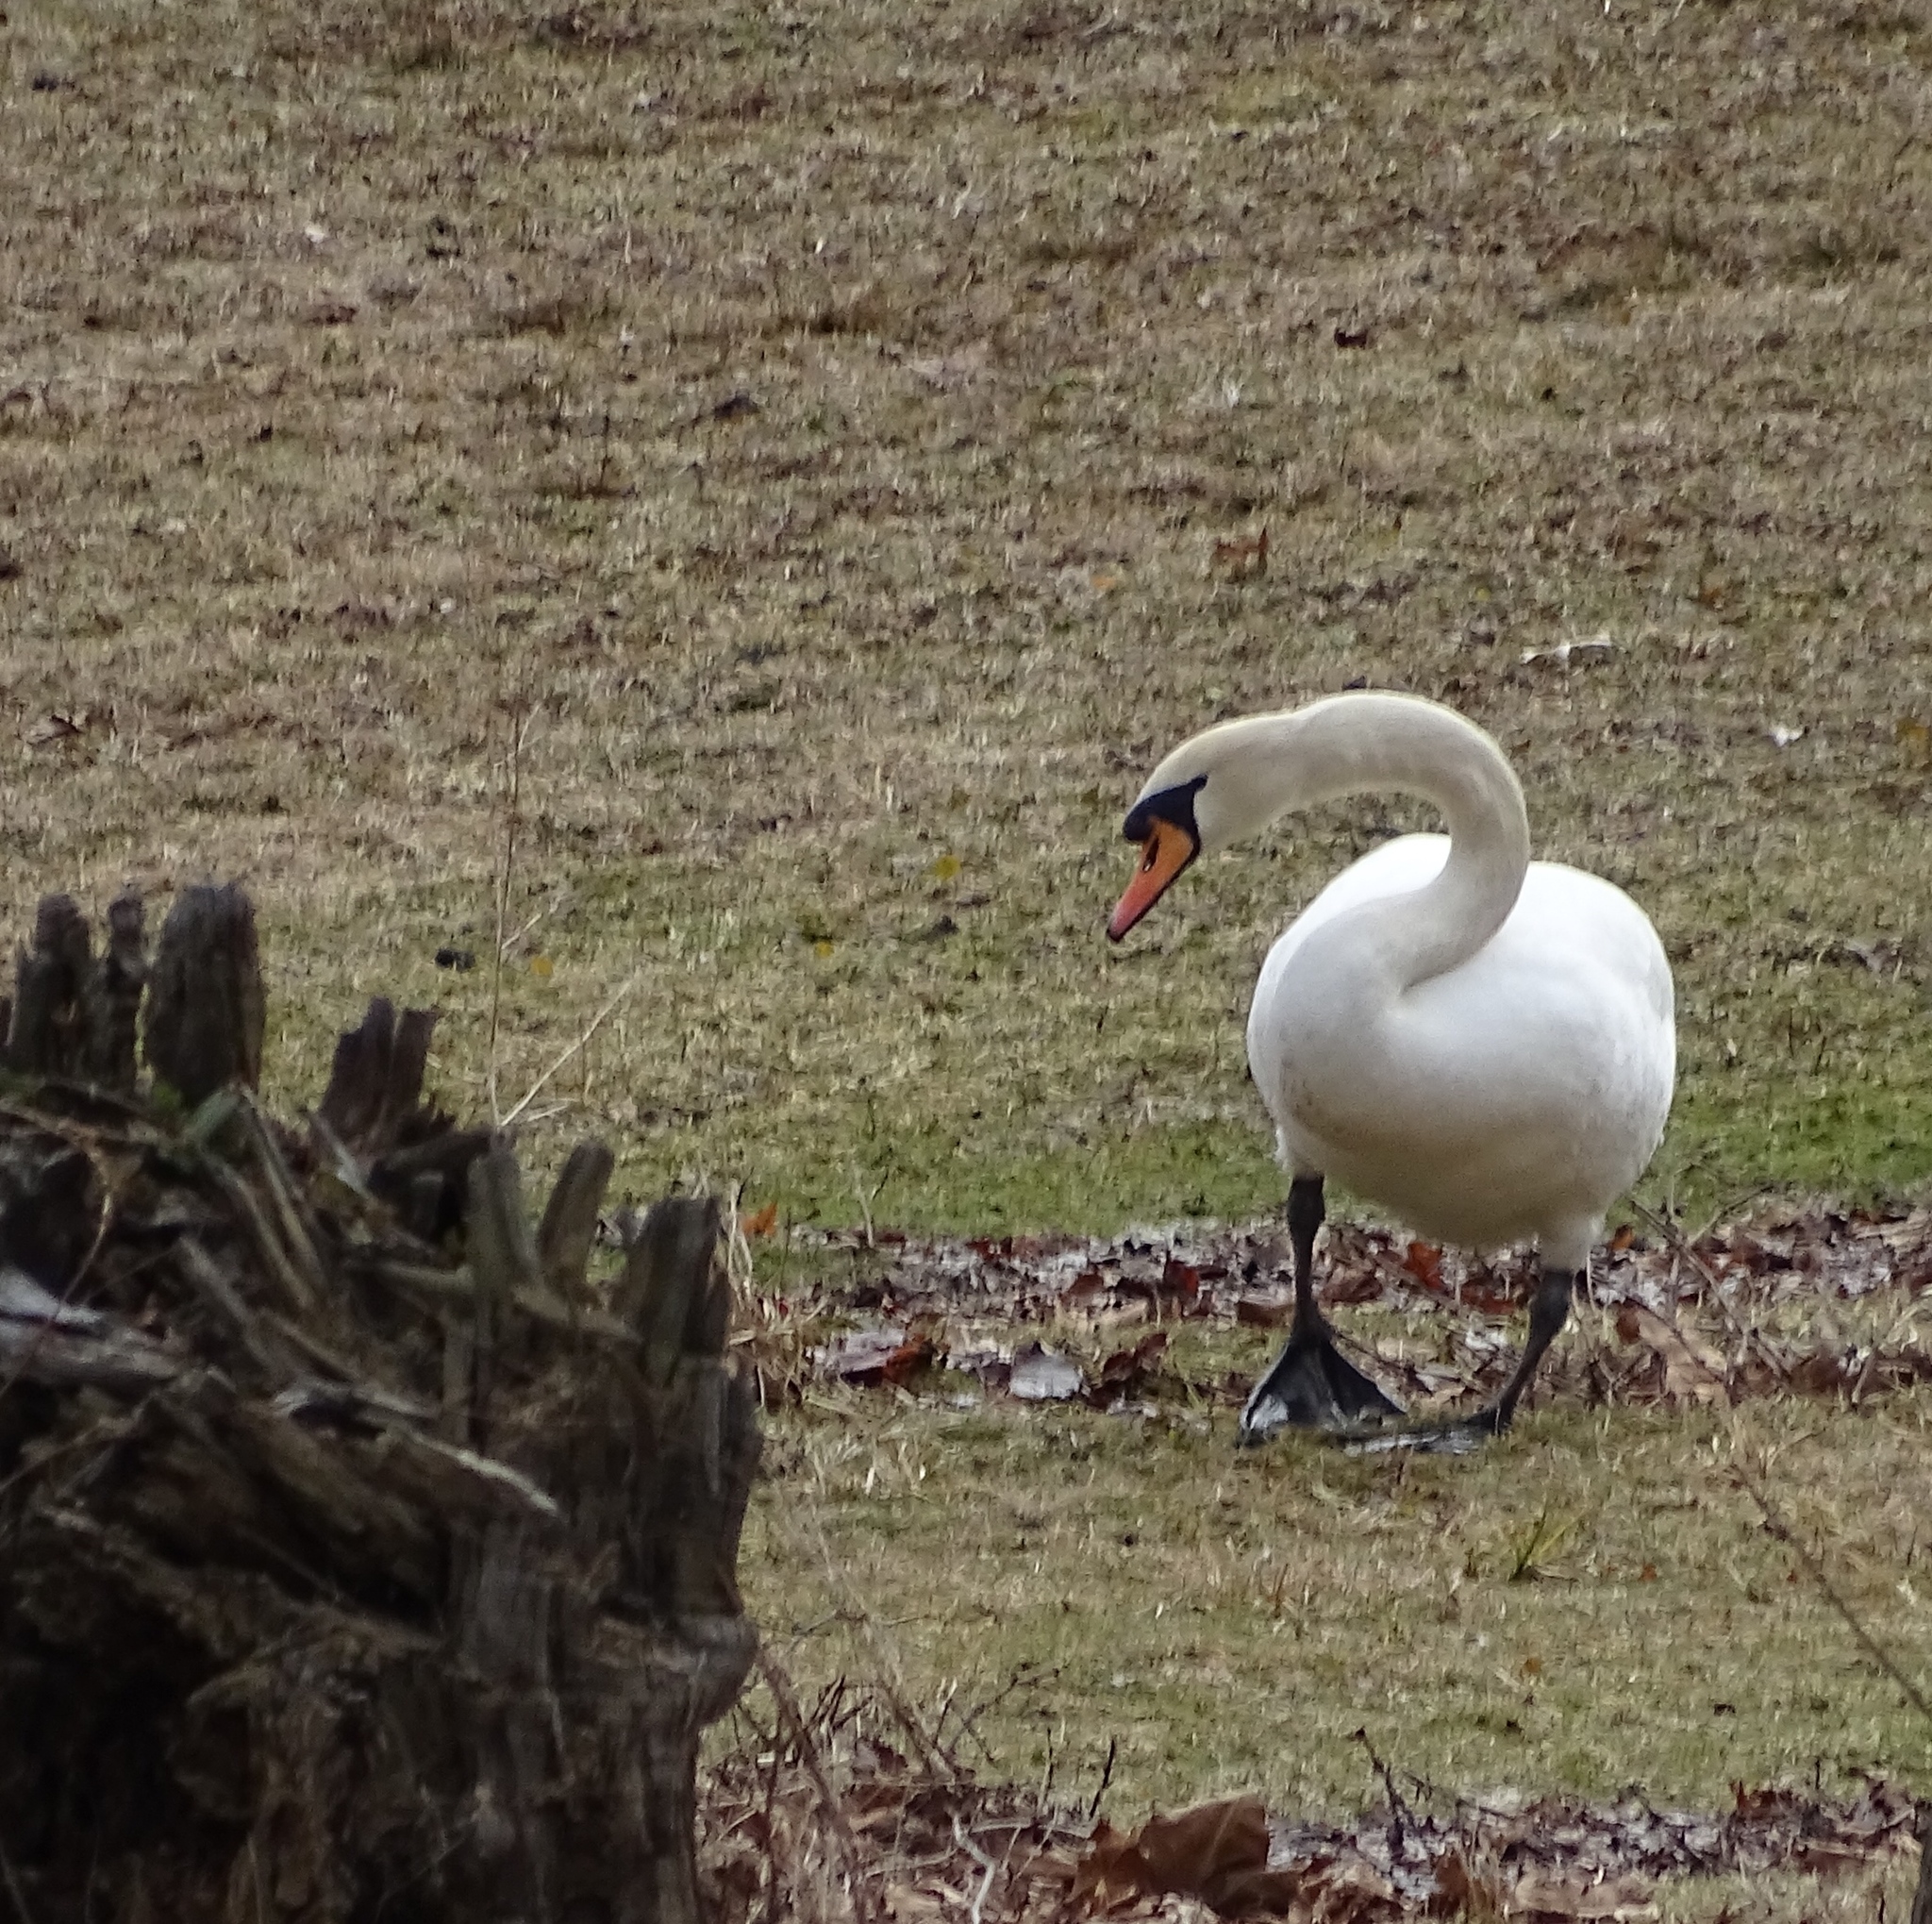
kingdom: Animalia
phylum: Chordata
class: Aves
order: Anseriformes
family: Anatidae
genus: Cygnus
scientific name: Cygnus olor
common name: Mute swan
